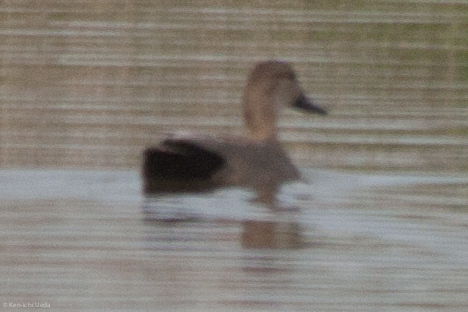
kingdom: Animalia
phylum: Chordata
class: Aves
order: Anseriformes
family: Anatidae
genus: Mareca
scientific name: Mareca strepera
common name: Gadwall
